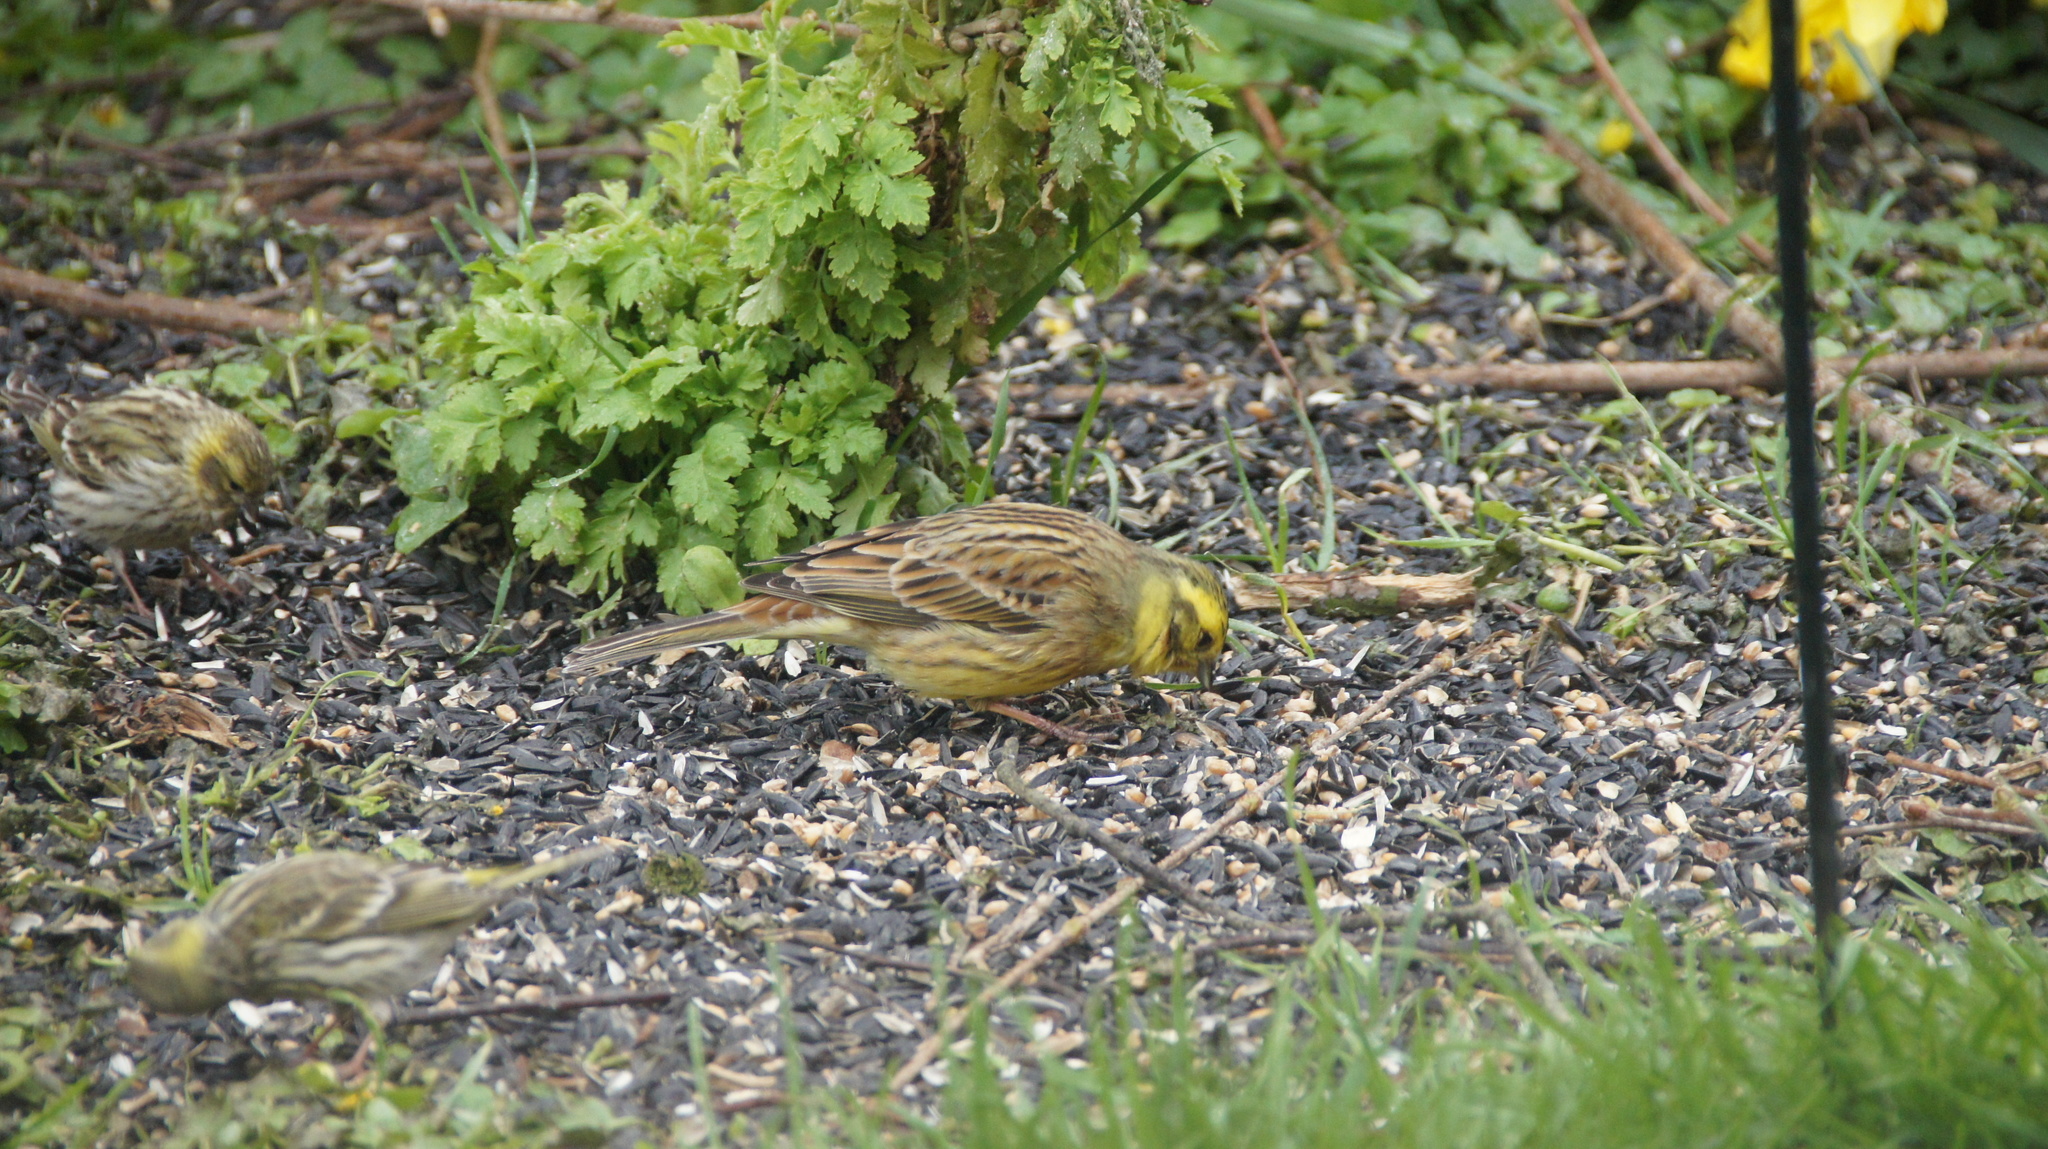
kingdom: Animalia
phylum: Chordata
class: Aves
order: Passeriformes
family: Emberizidae
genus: Emberiza
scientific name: Emberiza citrinella
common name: Yellowhammer
